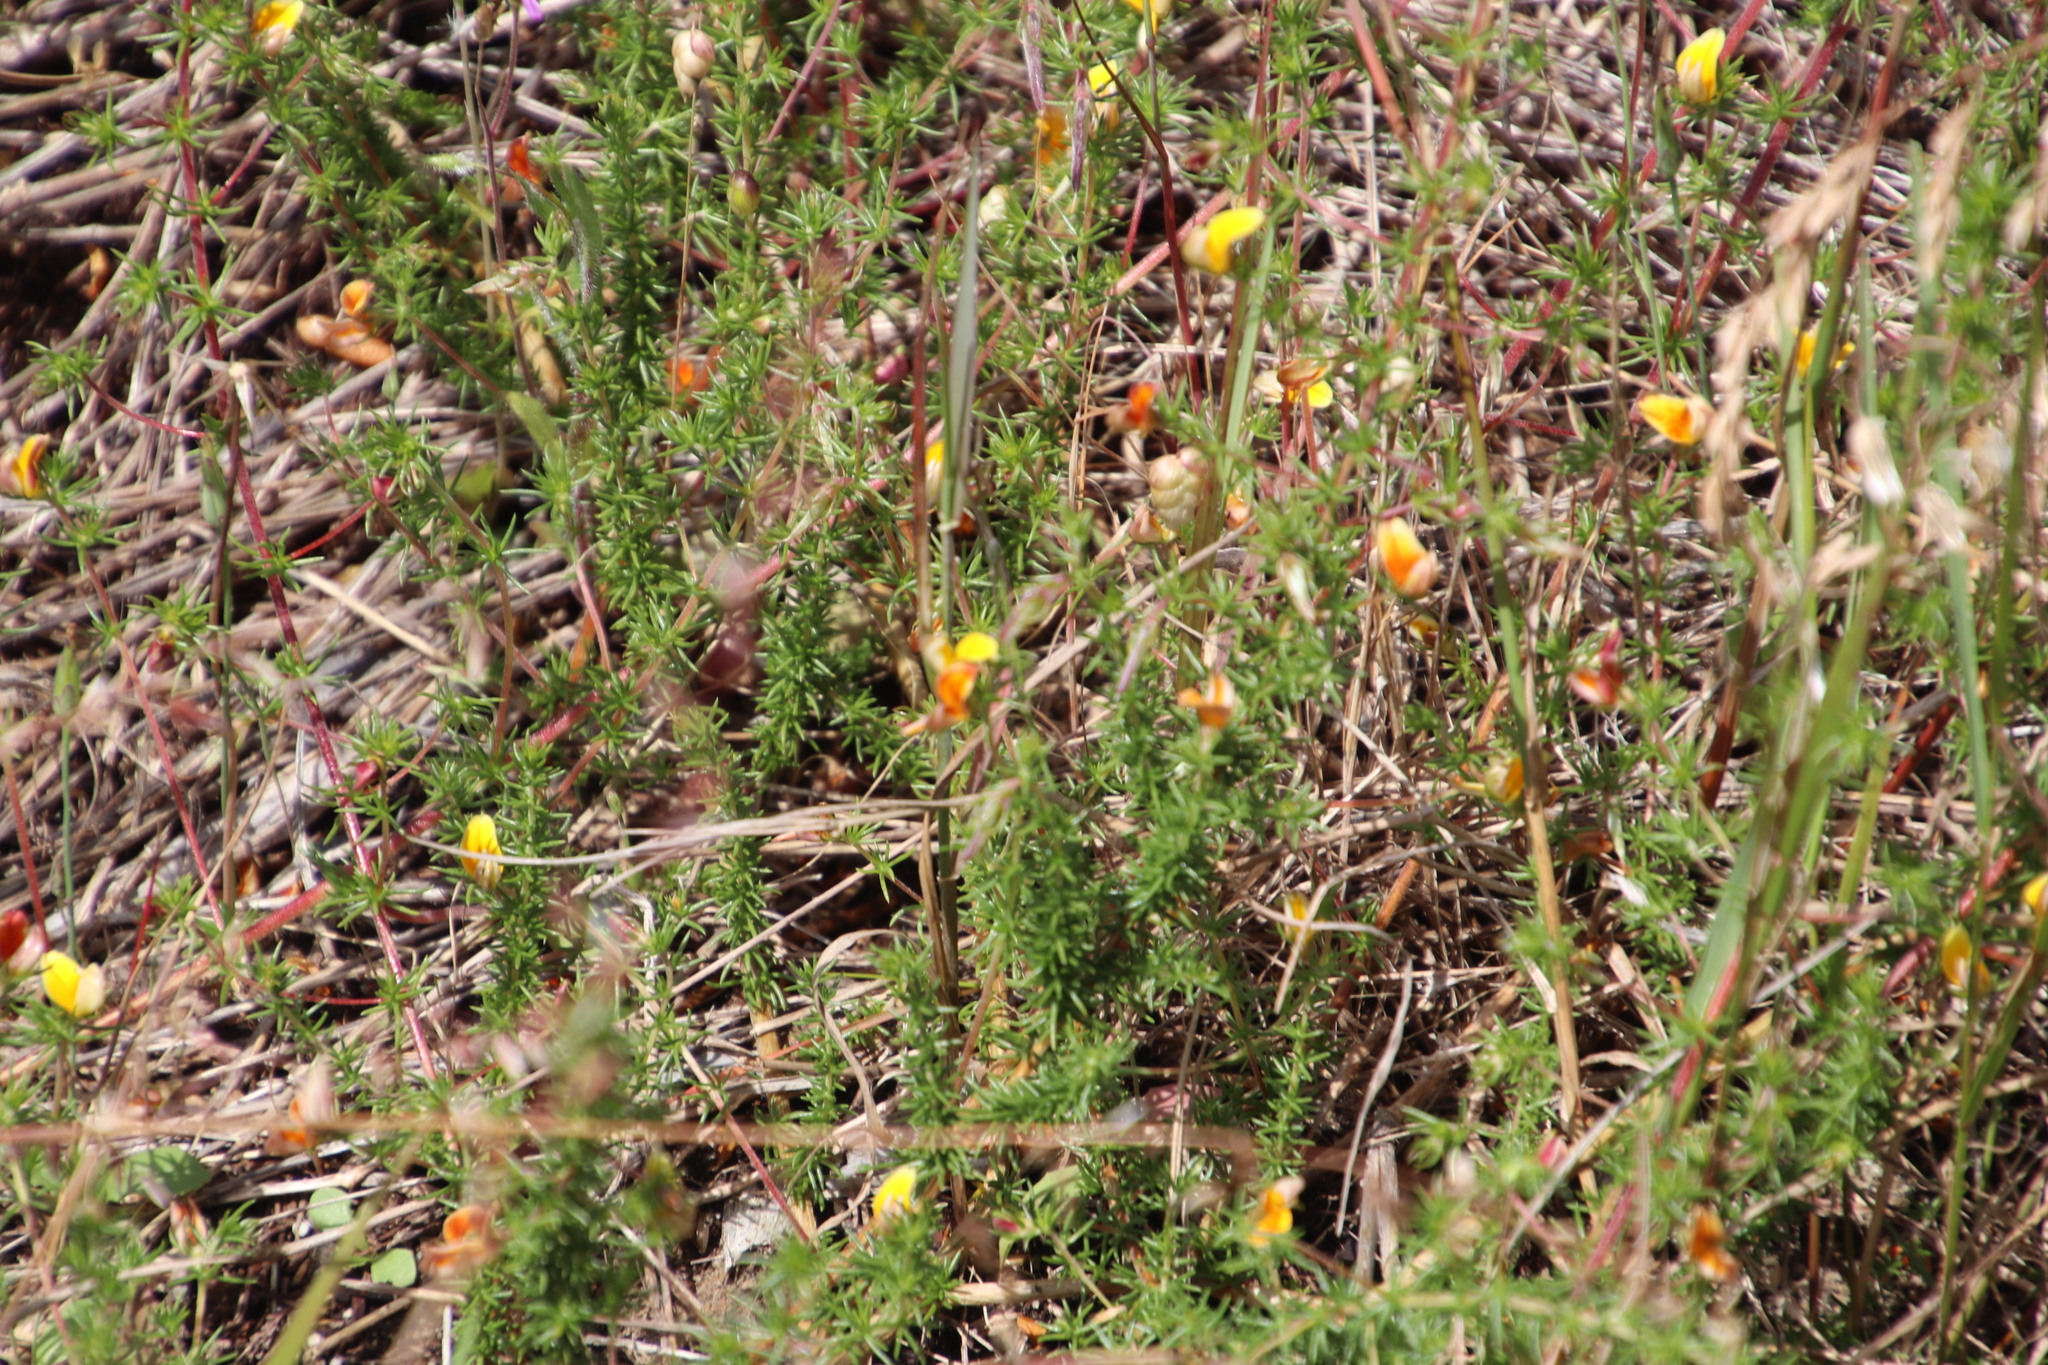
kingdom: Plantae
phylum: Tracheophyta
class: Magnoliopsida
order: Fabales
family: Fabaceae
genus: Aspalathus
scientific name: Aspalathus retroflexa
